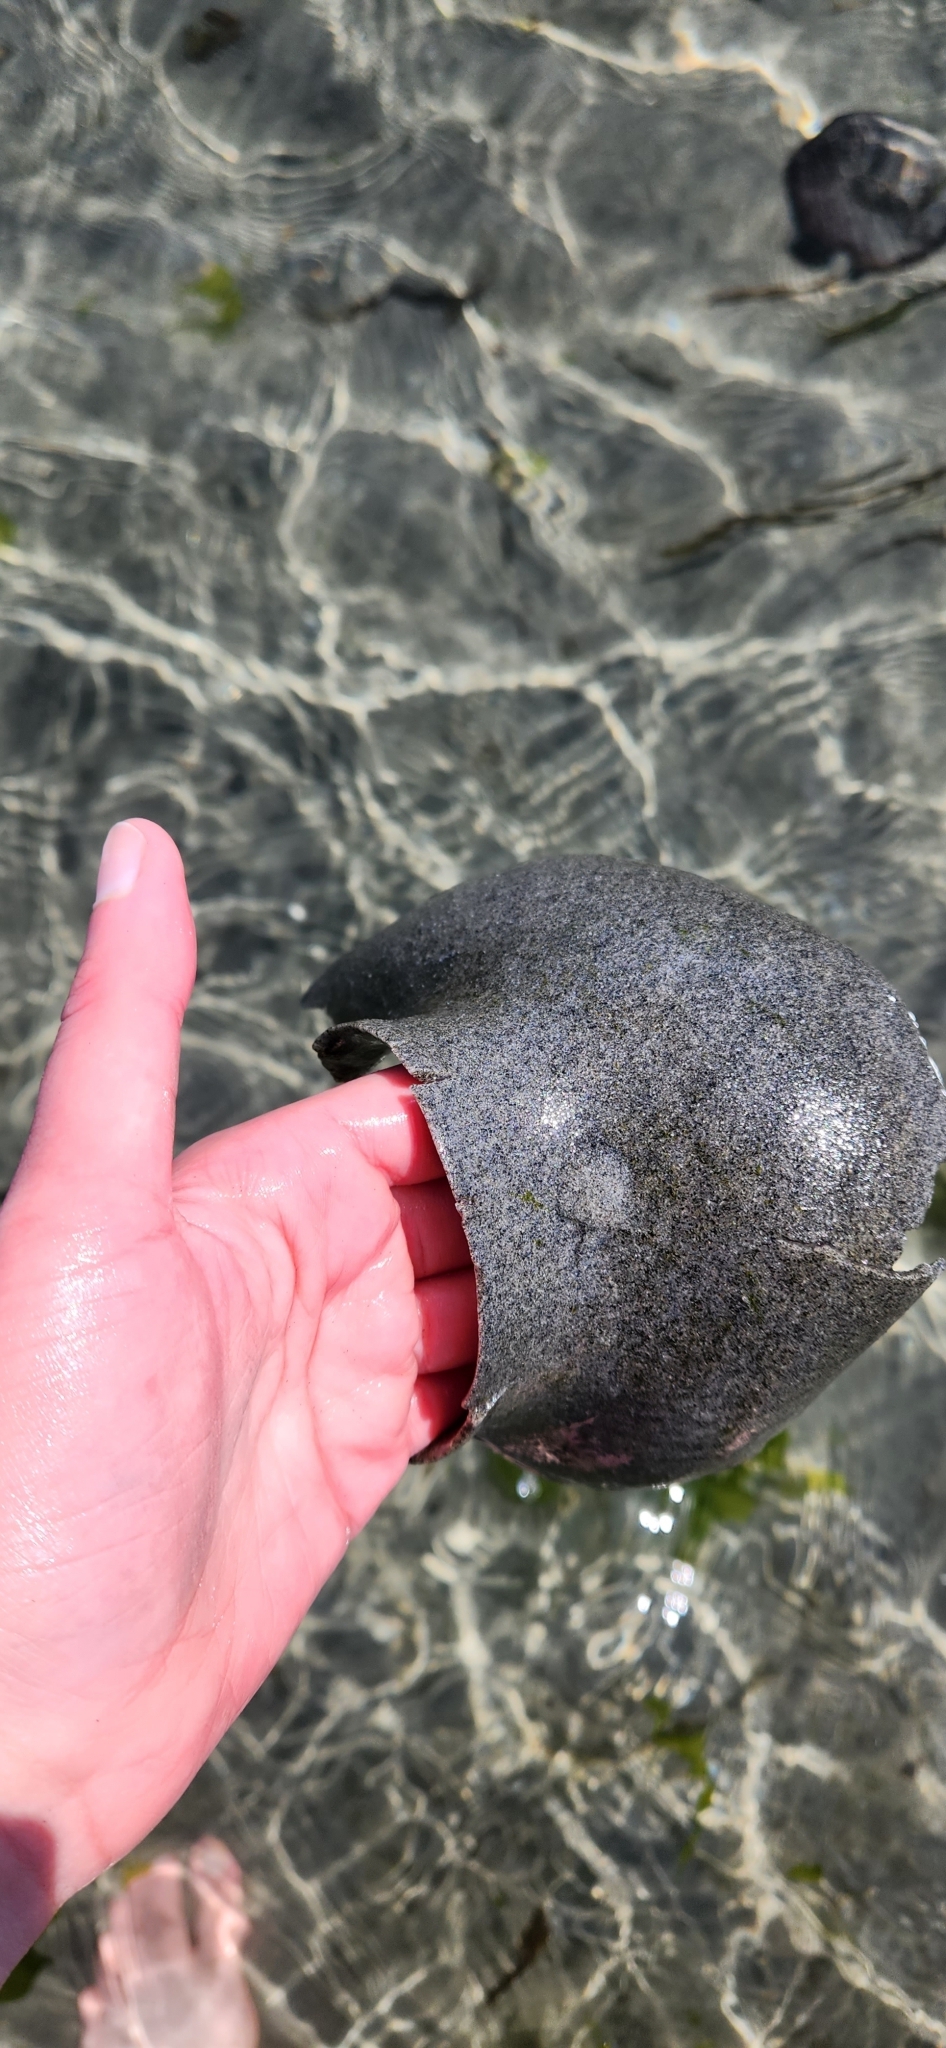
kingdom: Animalia
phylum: Mollusca
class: Gastropoda
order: Littorinimorpha
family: Naticidae
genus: Neverita
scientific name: Neverita lewisii
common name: Lewis' moonsnail
